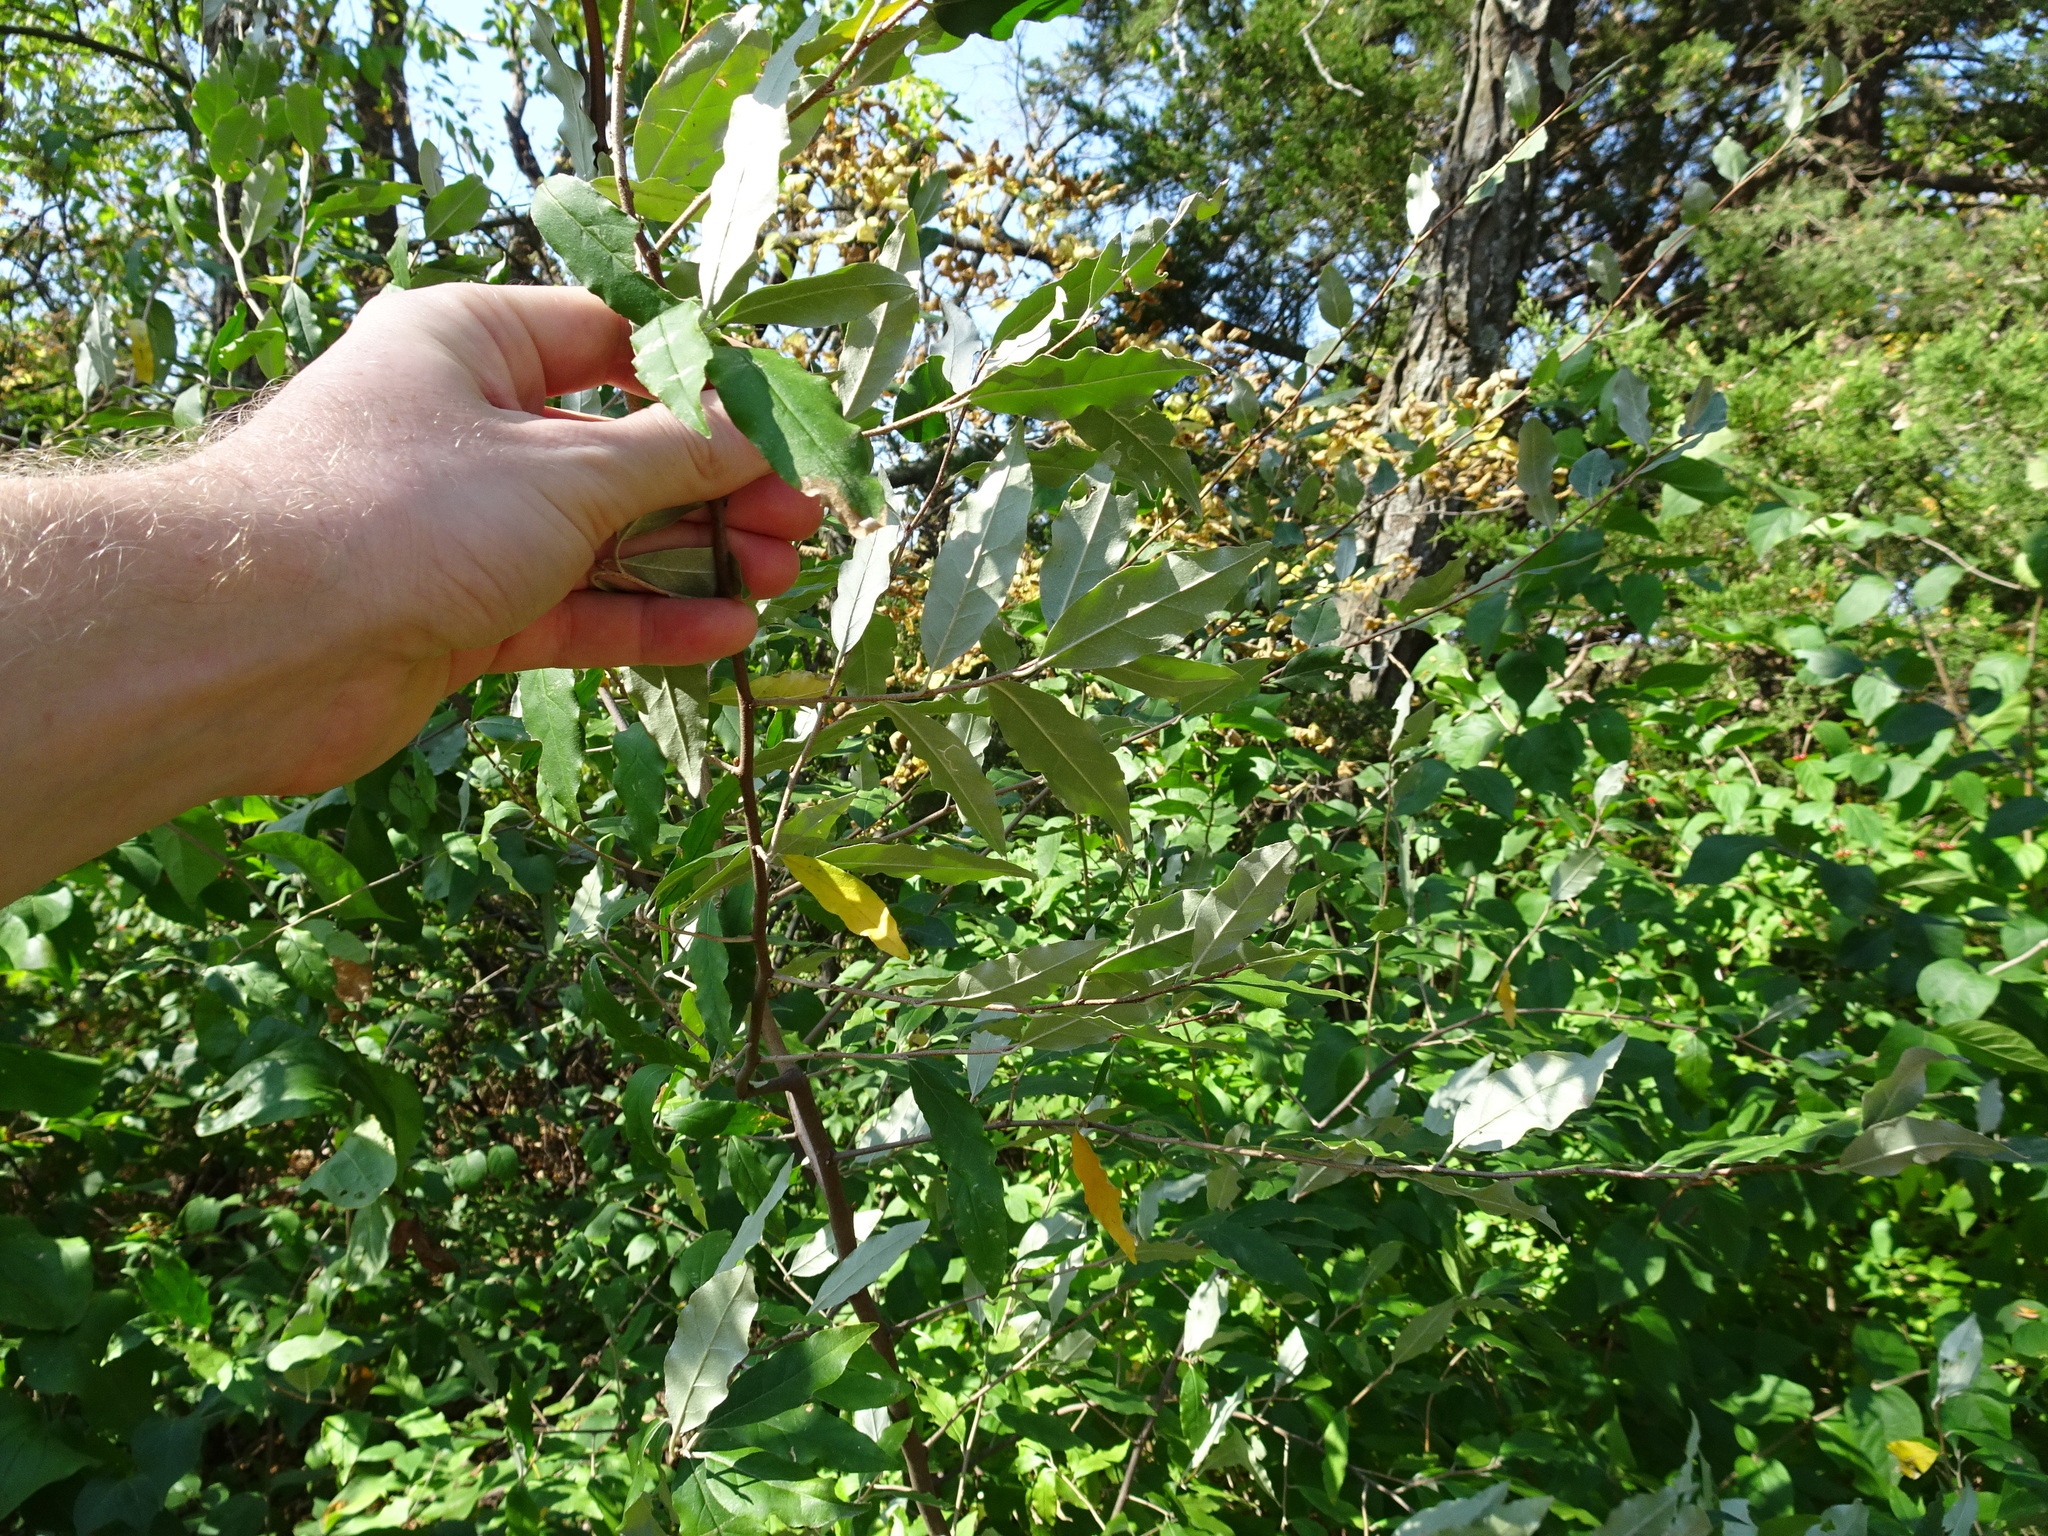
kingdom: Plantae
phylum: Tracheophyta
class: Magnoliopsida
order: Rosales
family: Elaeagnaceae
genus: Elaeagnus
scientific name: Elaeagnus umbellata
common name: Autumn olive
